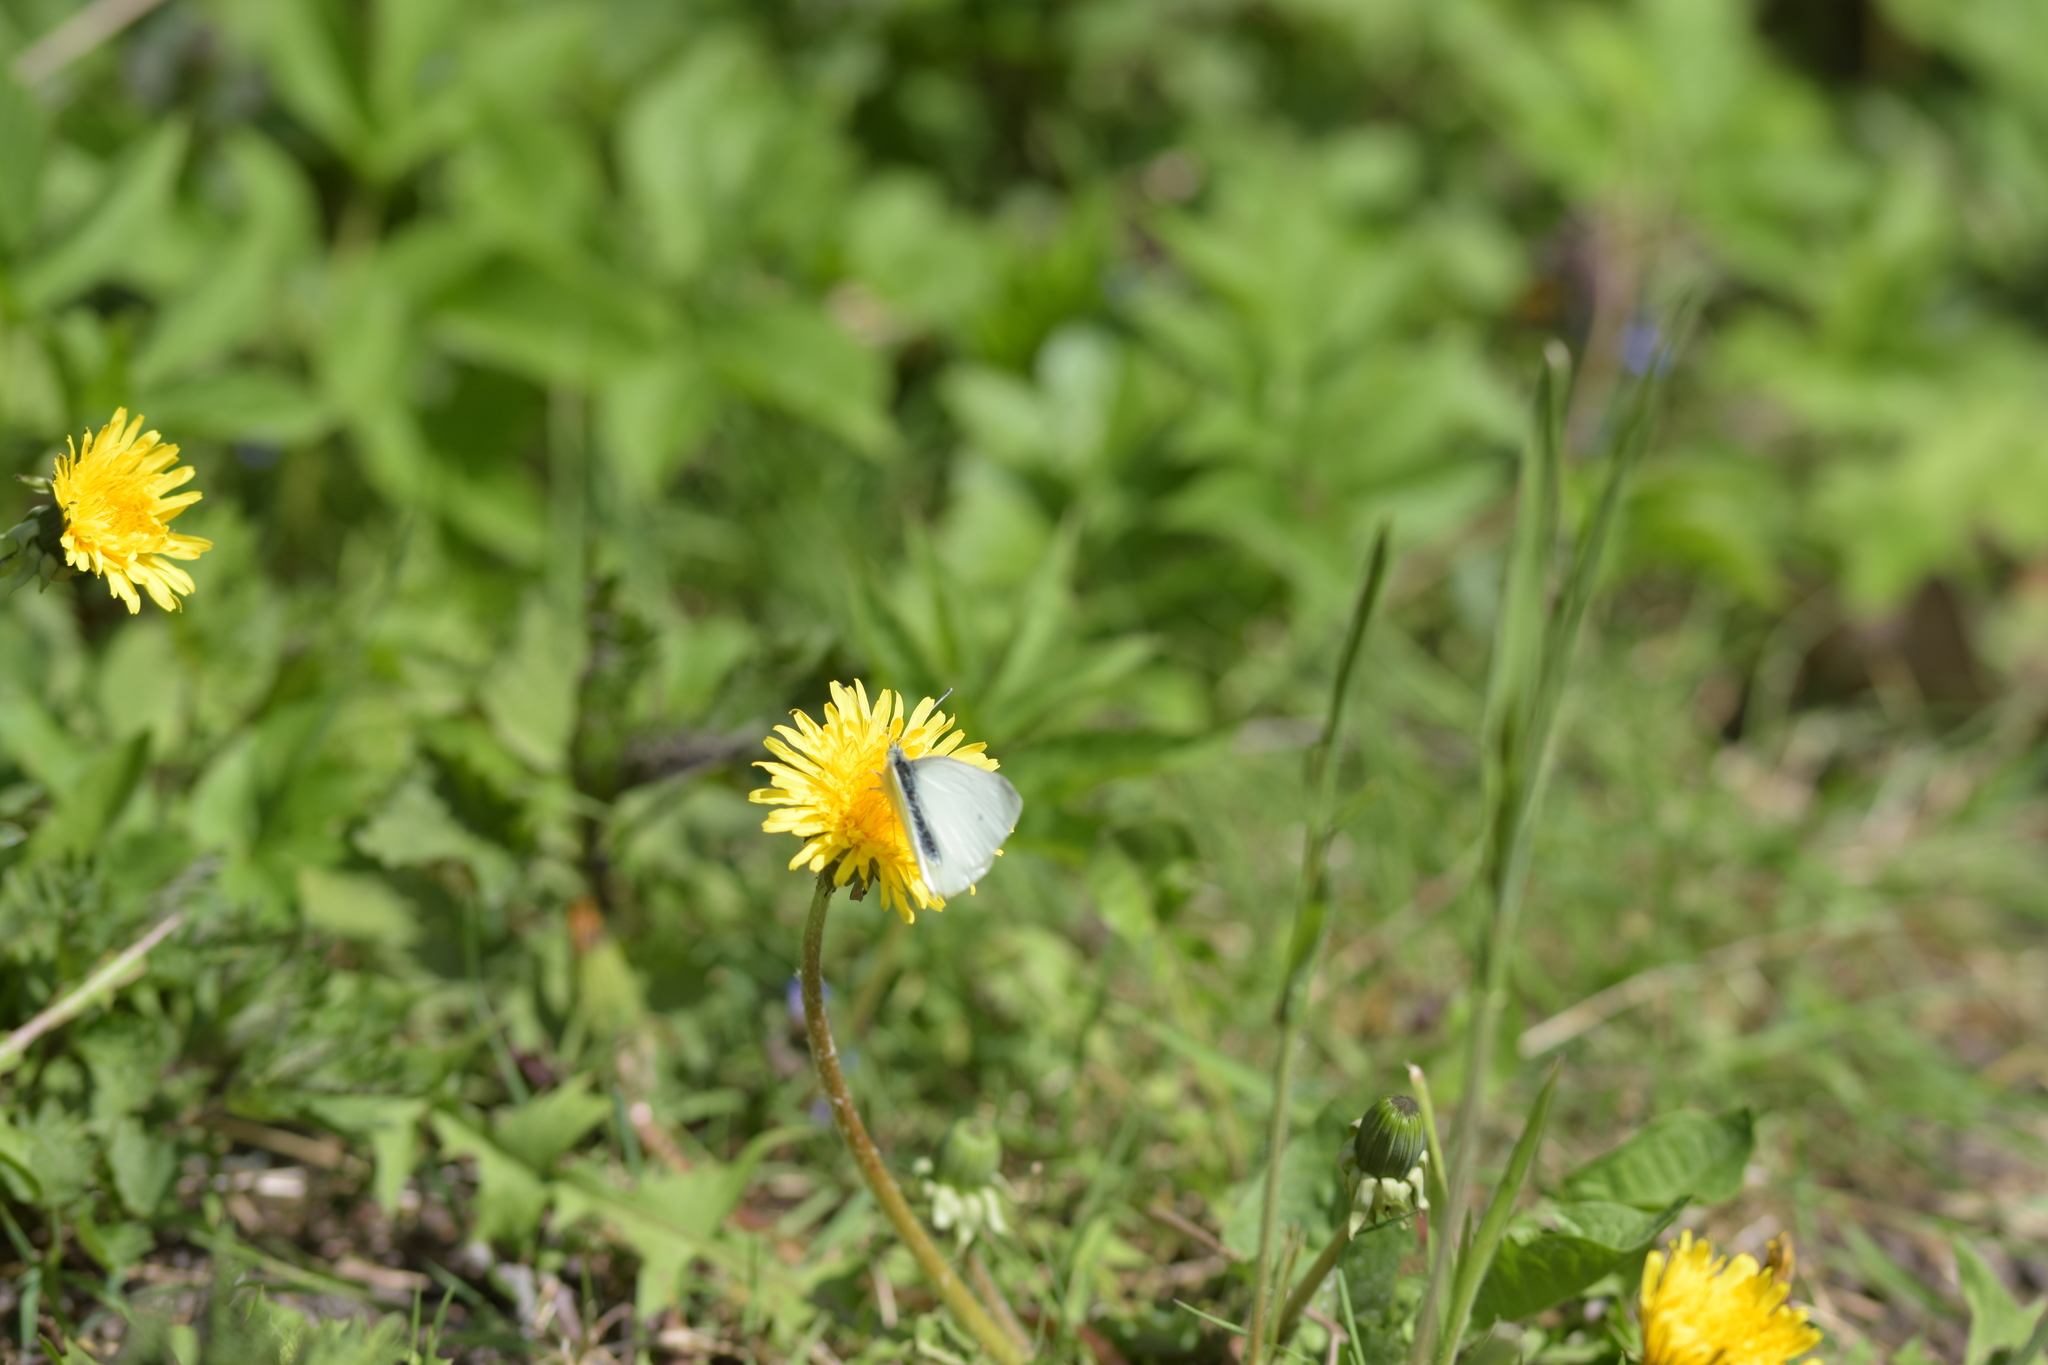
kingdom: Animalia
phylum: Arthropoda
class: Insecta
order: Lepidoptera
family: Pieridae
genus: Pieris
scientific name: Pieris rapae
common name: Small white
